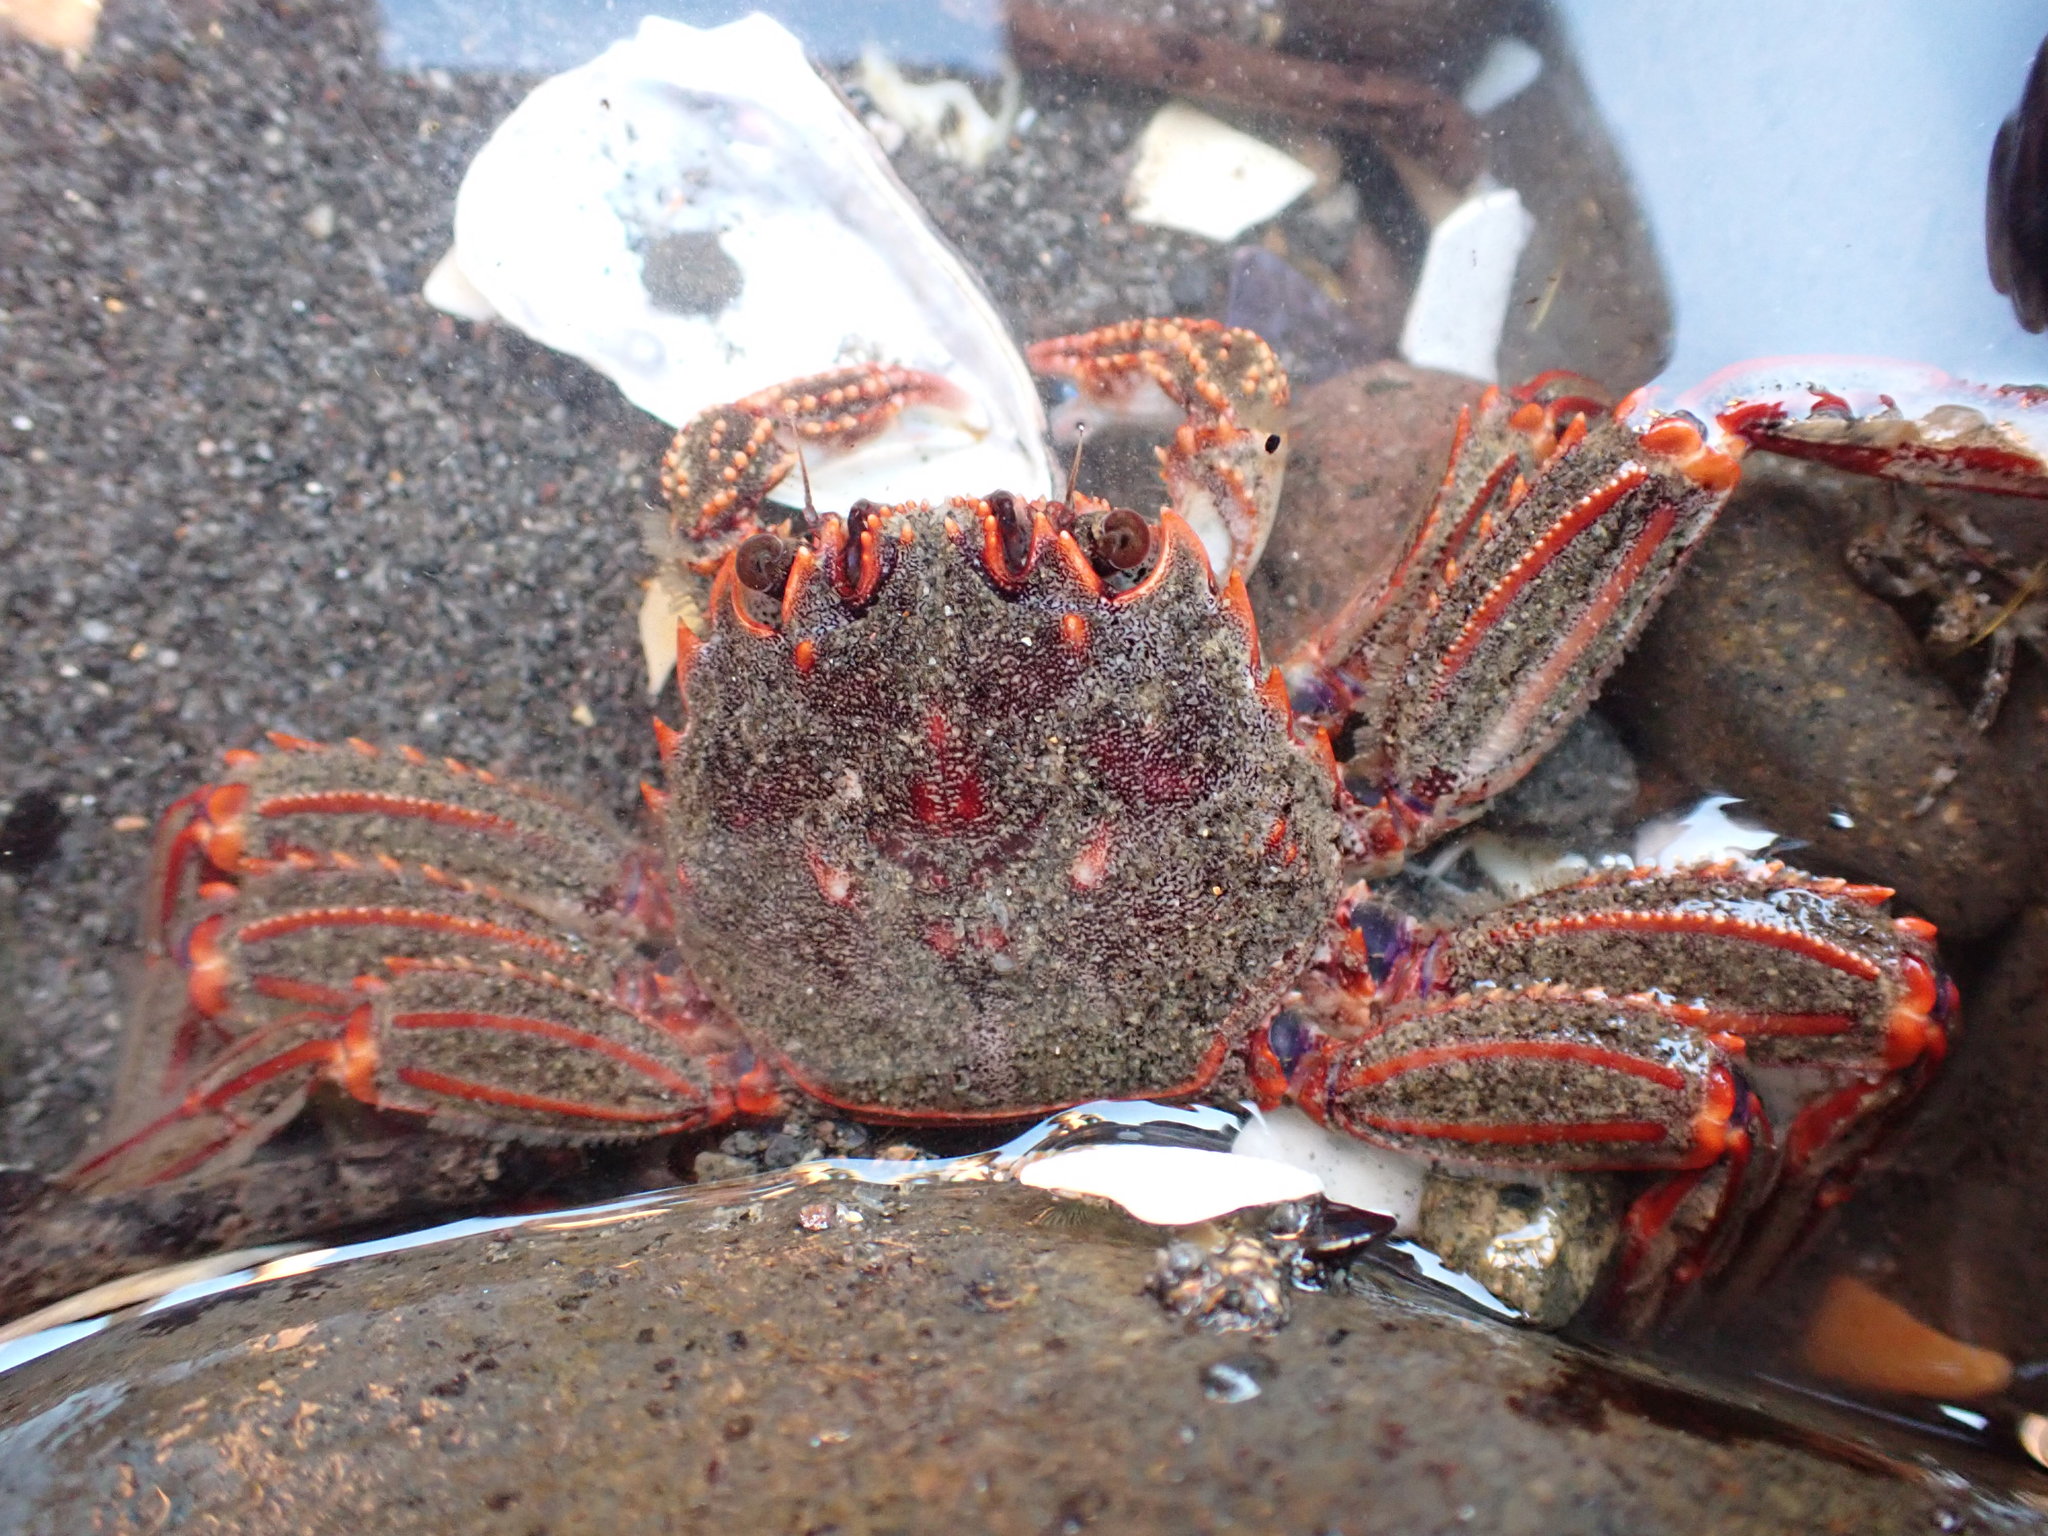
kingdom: Animalia
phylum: Arthropoda
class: Malacostraca
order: Decapoda
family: Plagusiidae
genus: Guinusia
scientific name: Guinusia chabrus
